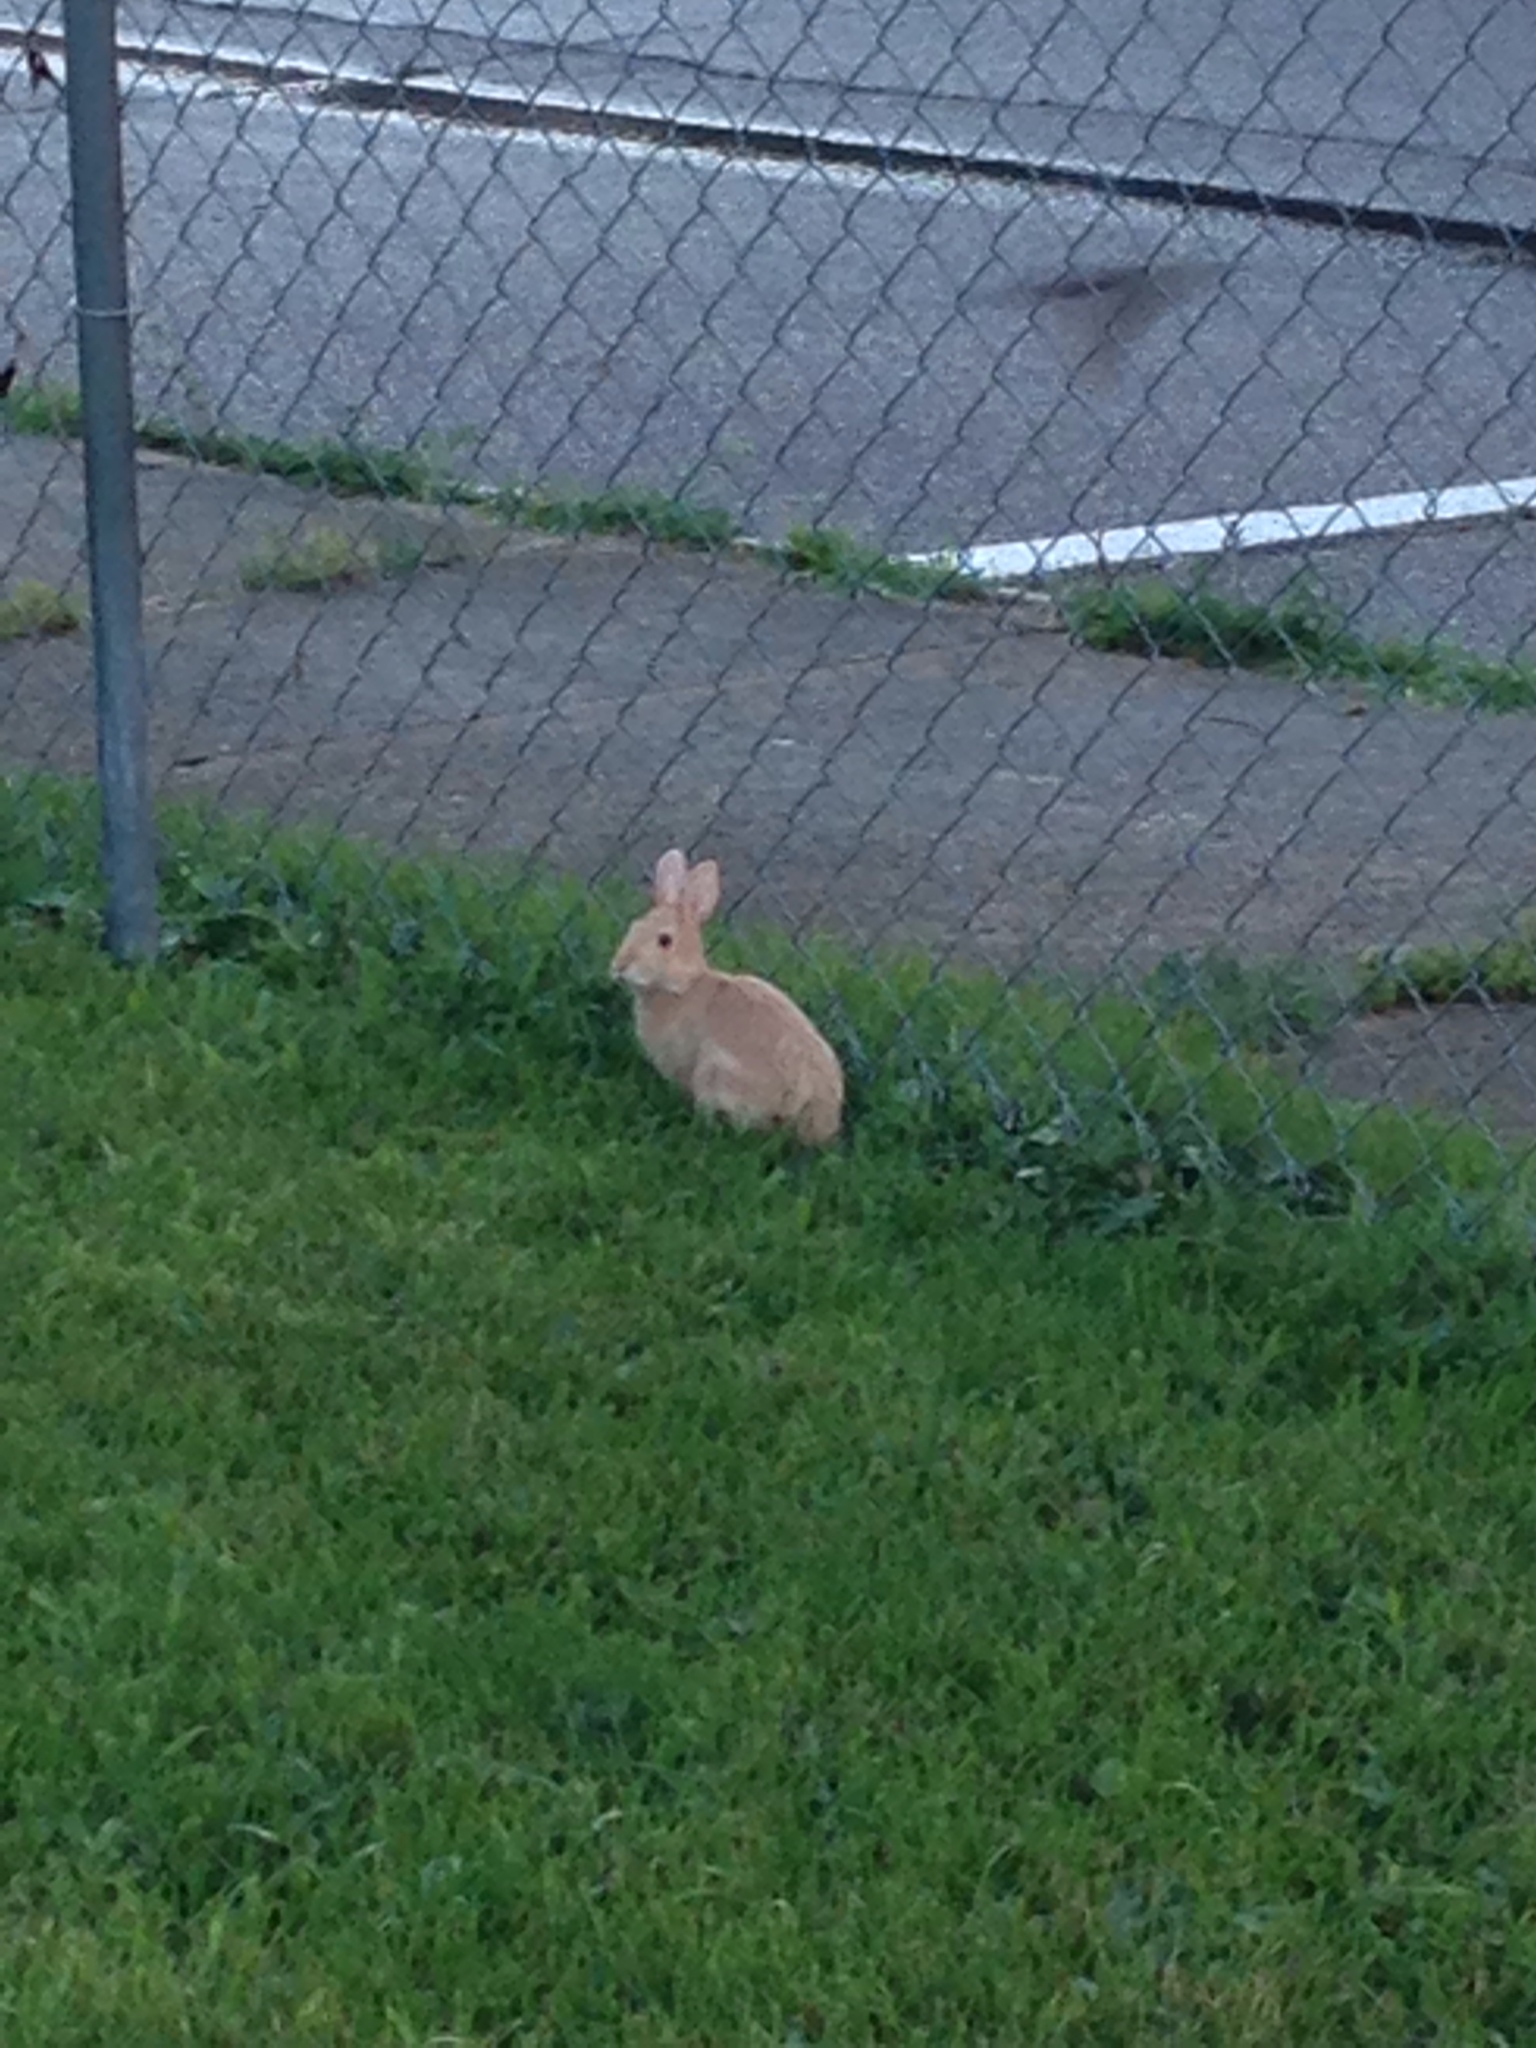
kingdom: Animalia
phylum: Chordata
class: Mammalia
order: Lagomorpha
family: Leporidae
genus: Sylvilagus
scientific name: Sylvilagus floridanus
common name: Eastern cottontail
